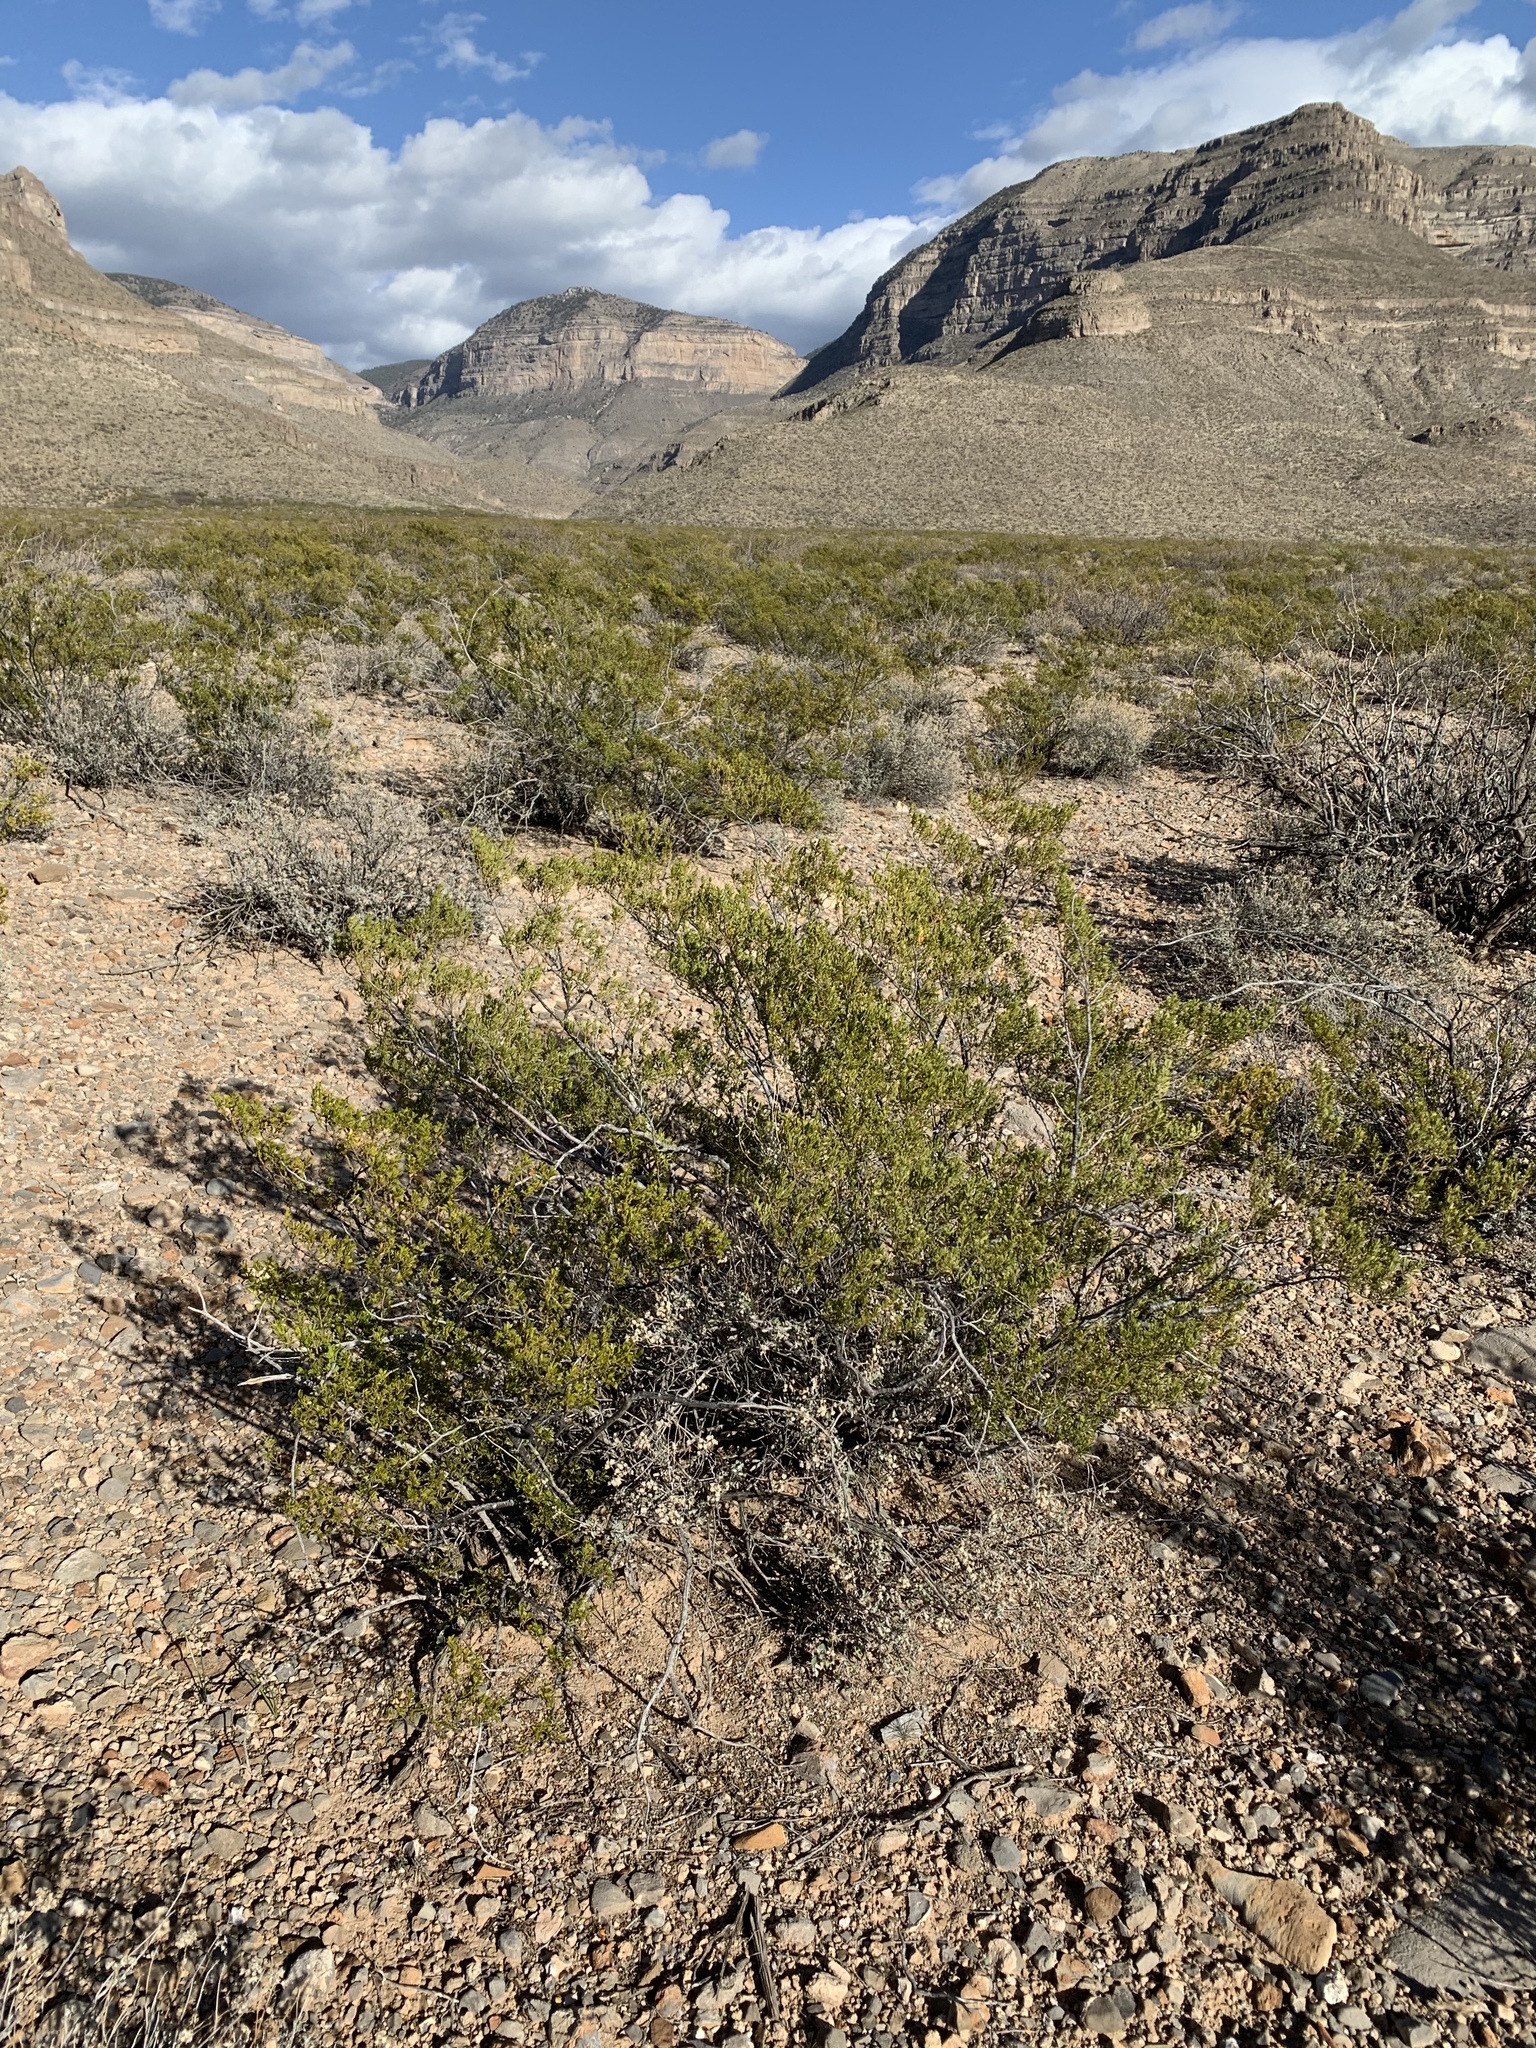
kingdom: Plantae
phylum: Tracheophyta
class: Magnoliopsida
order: Zygophyllales
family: Zygophyllaceae
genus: Larrea
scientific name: Larrea tridentata
